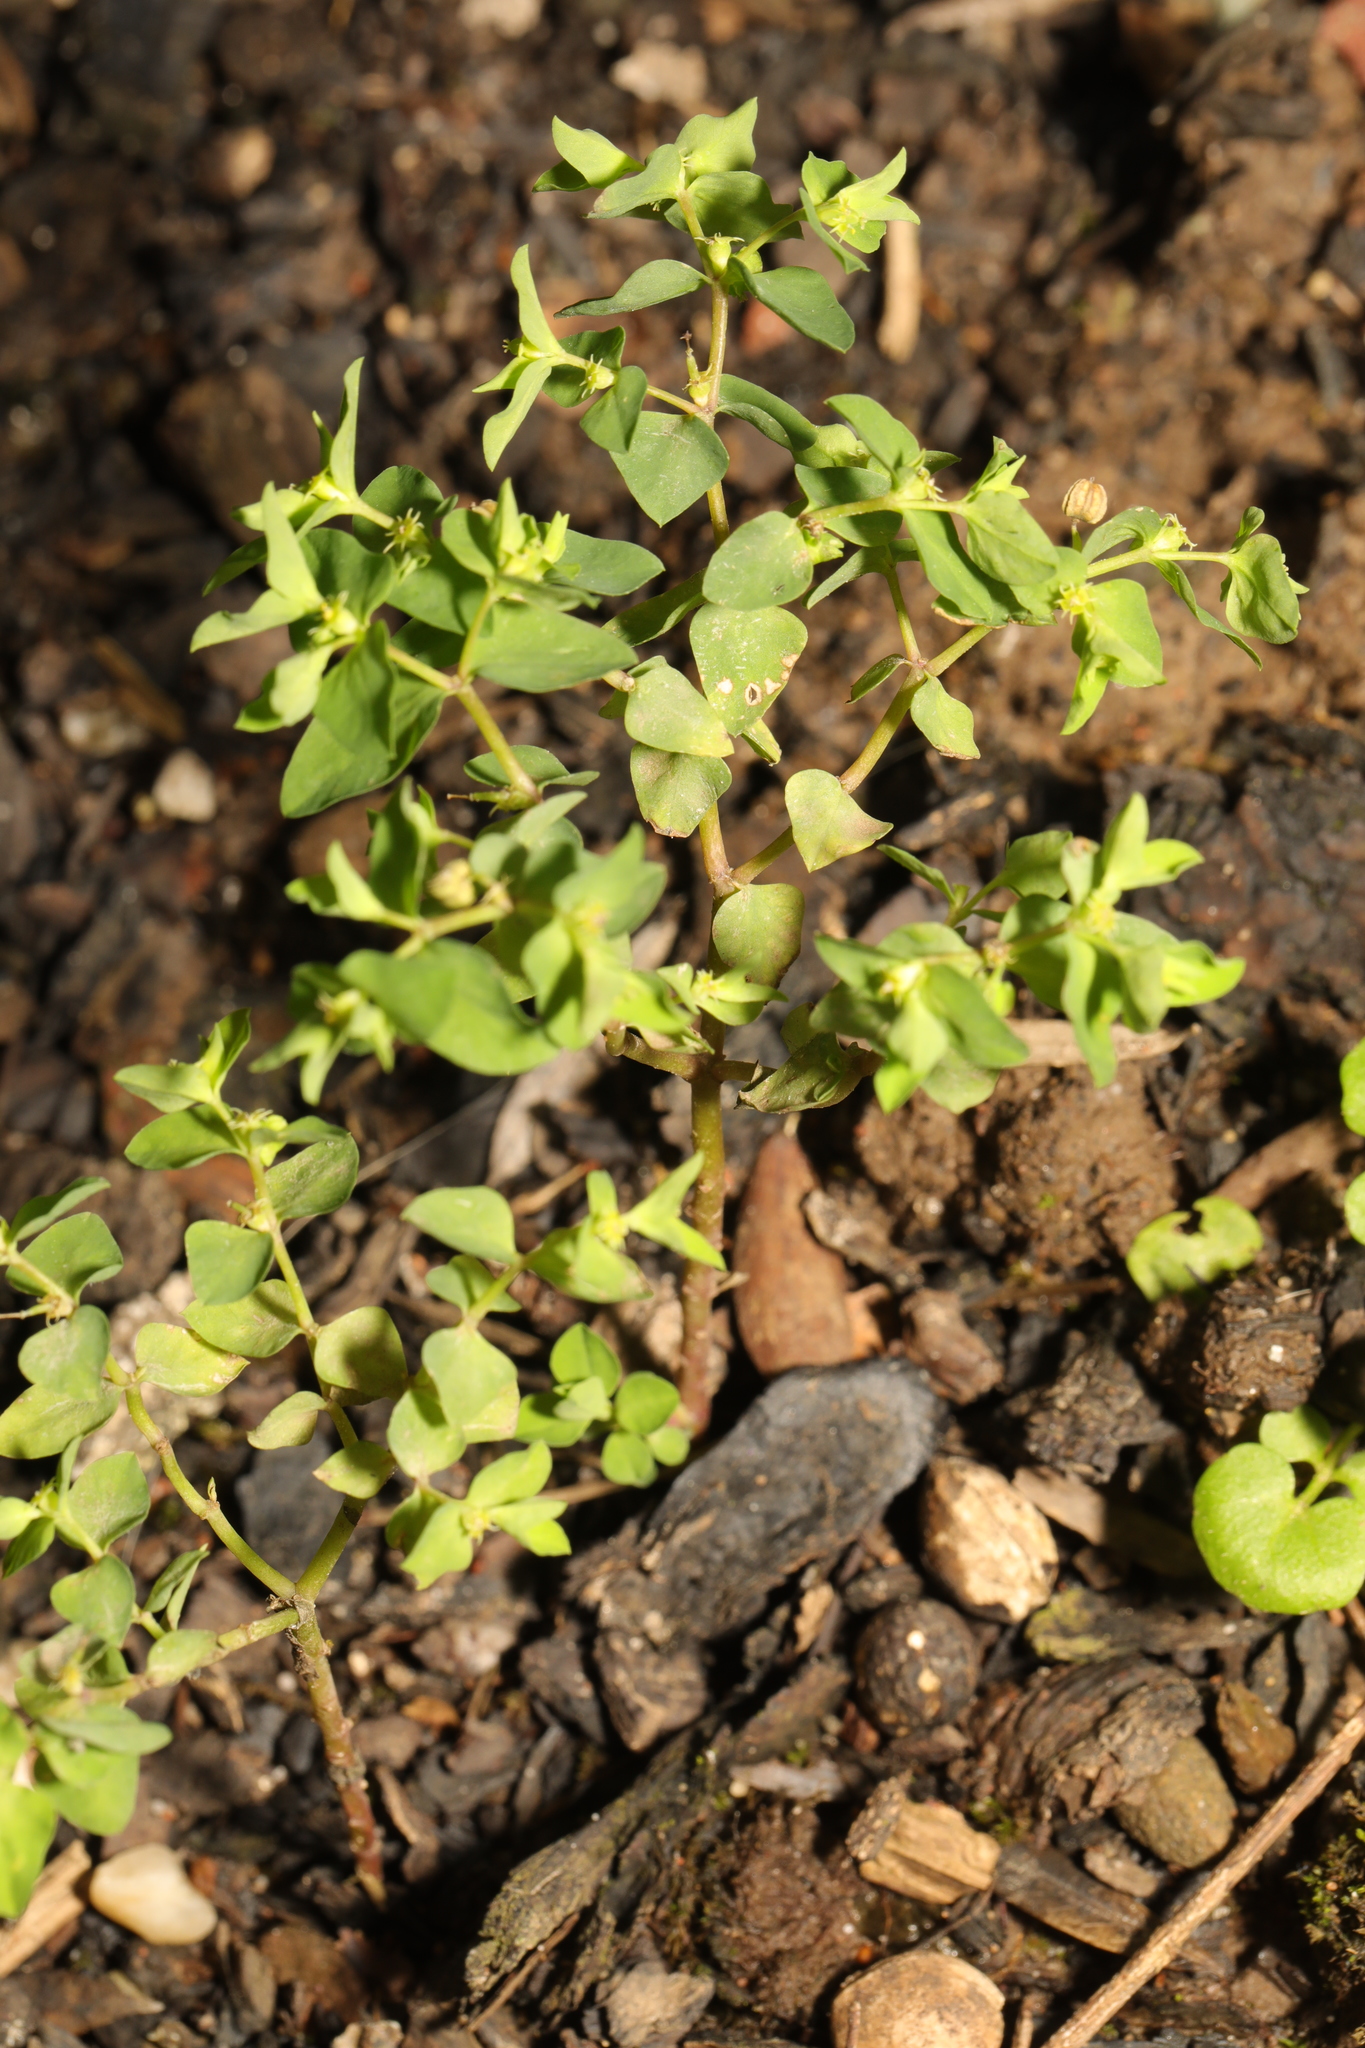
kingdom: Plantae
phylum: Tracheophyta
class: Magnoliopsida
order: Malpighiales
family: Euphorbiaceae
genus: Euphorbia
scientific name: Euphorbia peplus
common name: Petty spurge
